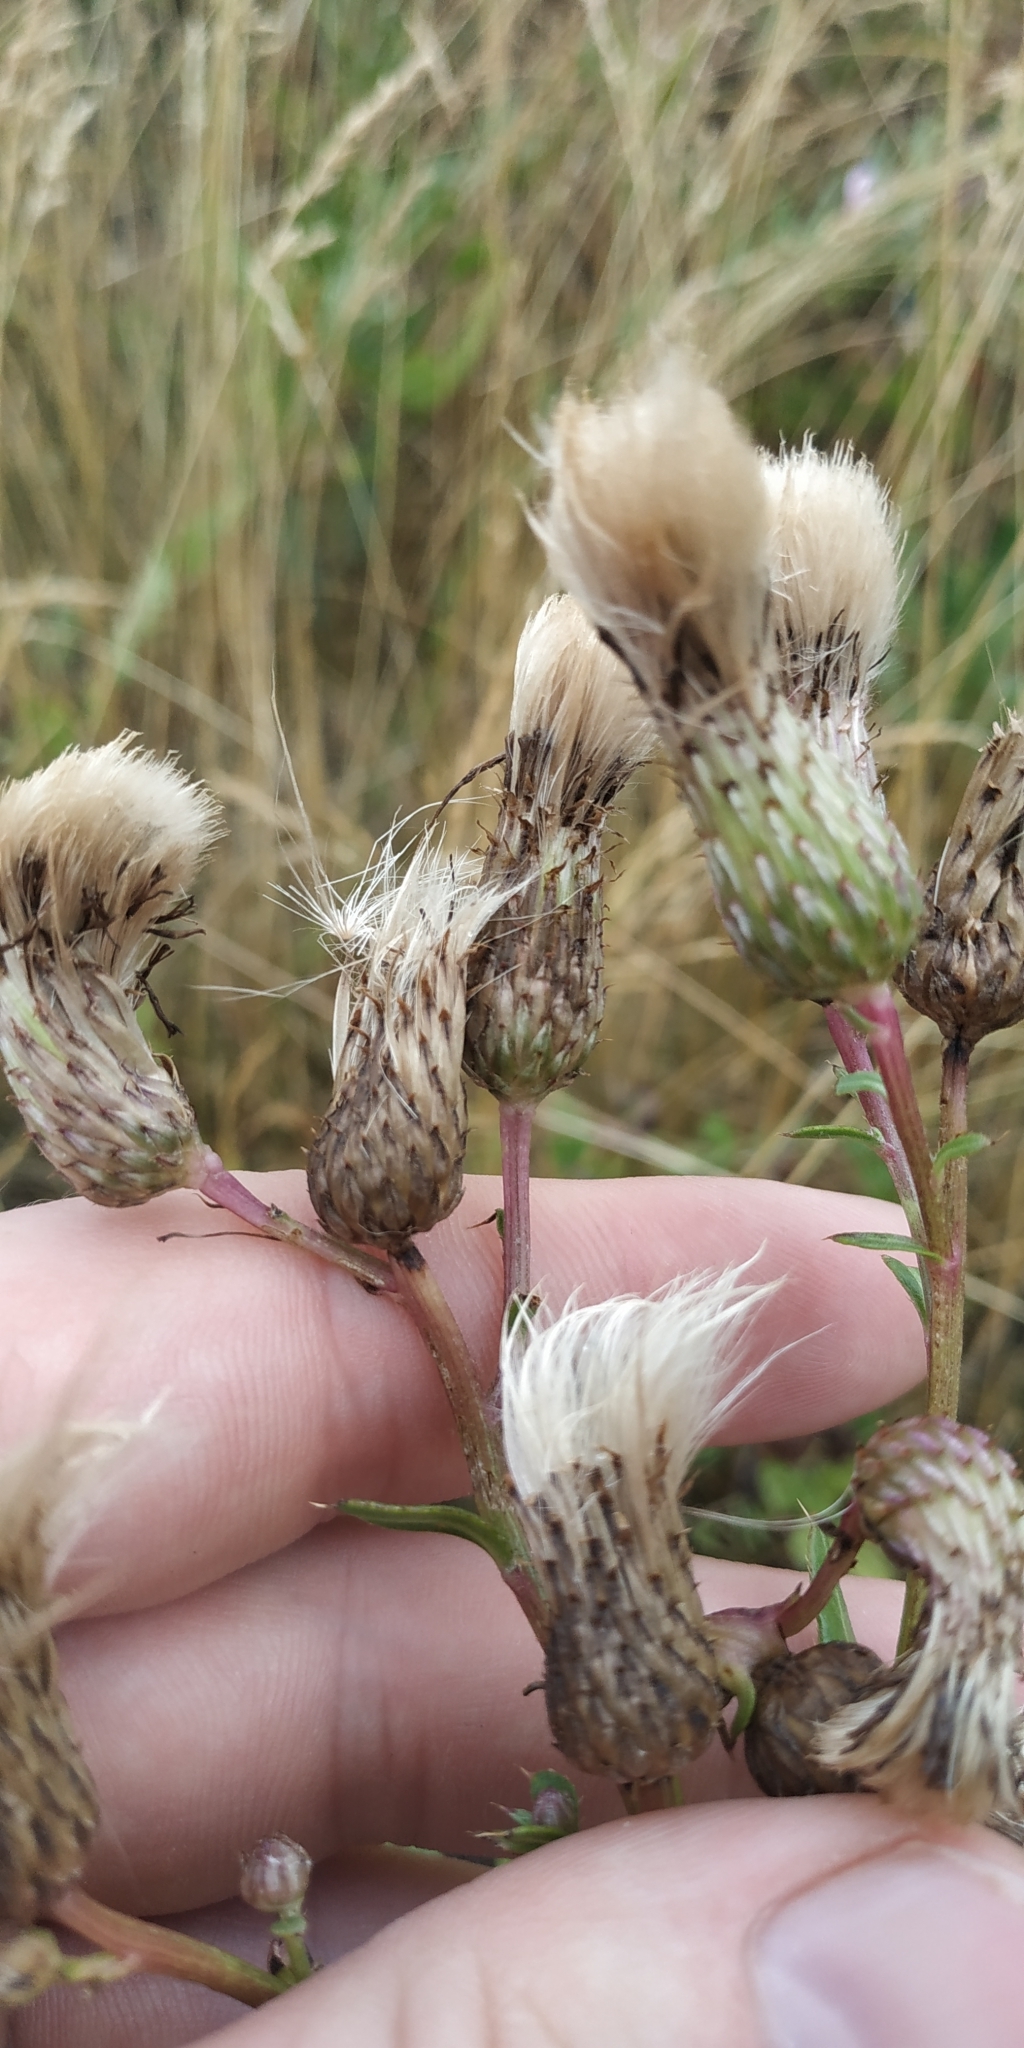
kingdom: Plantae
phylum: Tracheophyta
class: Magnoliopsida
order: Asterales
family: Asteraceae
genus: Cirsium
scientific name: Cirsium arvense
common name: Creeping thistle
